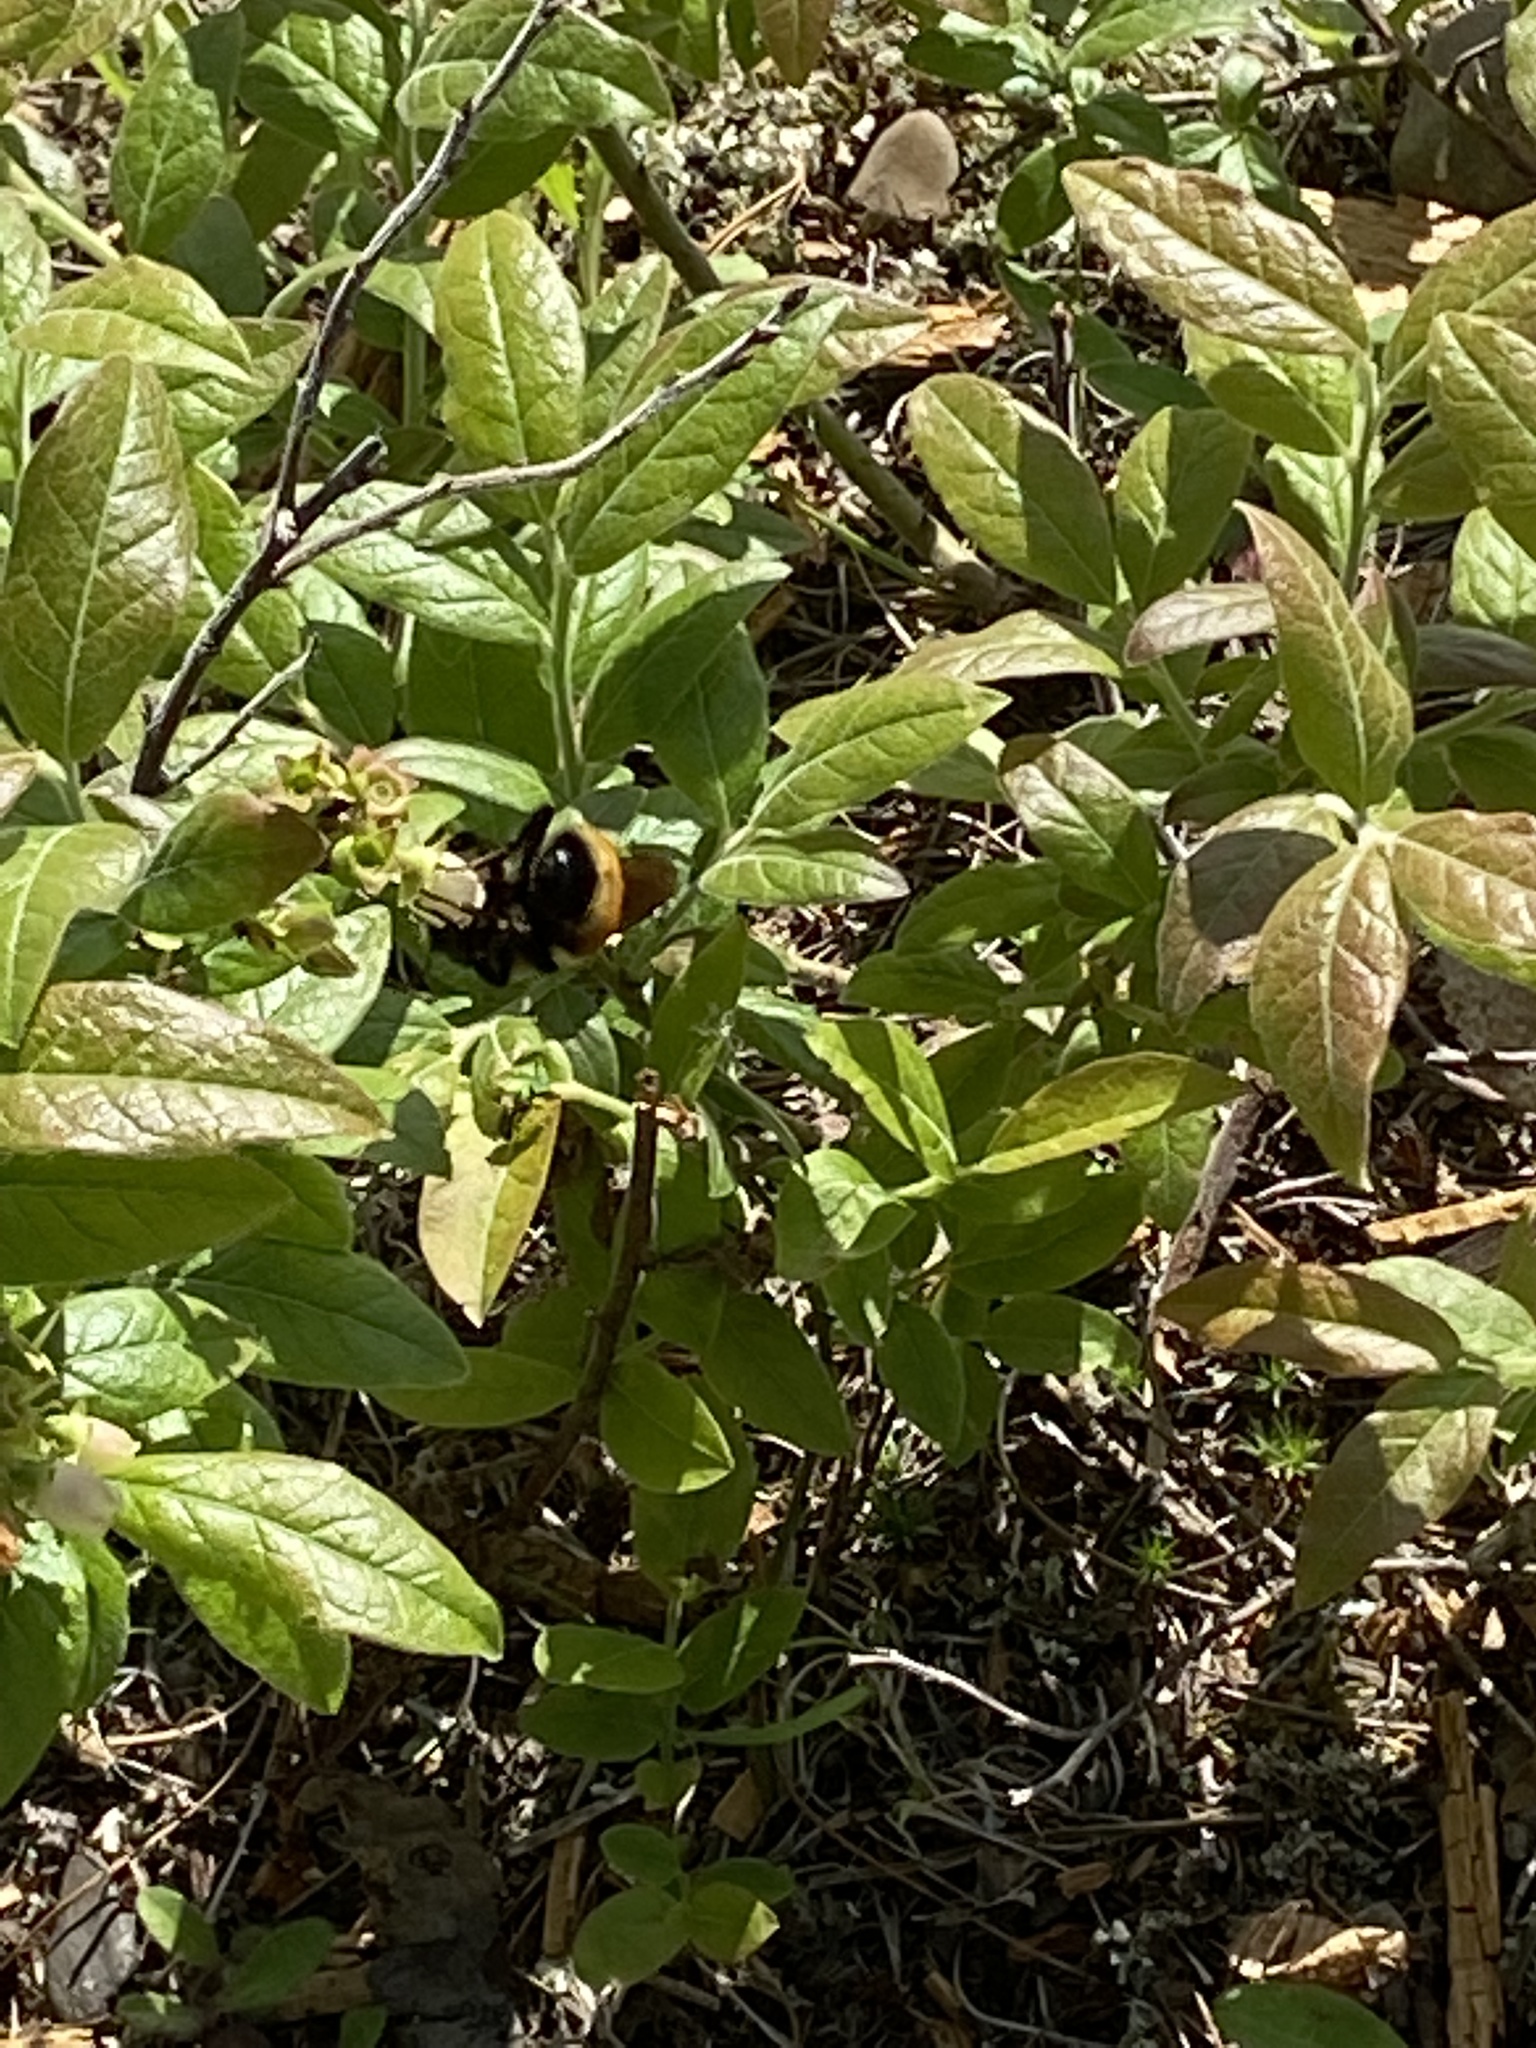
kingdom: Animalia
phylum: Arthropoda
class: Insecta
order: Hymenoptera
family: Apidae
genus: Bombus
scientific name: Bombus ternarius
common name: Tri-colored bumble bee
